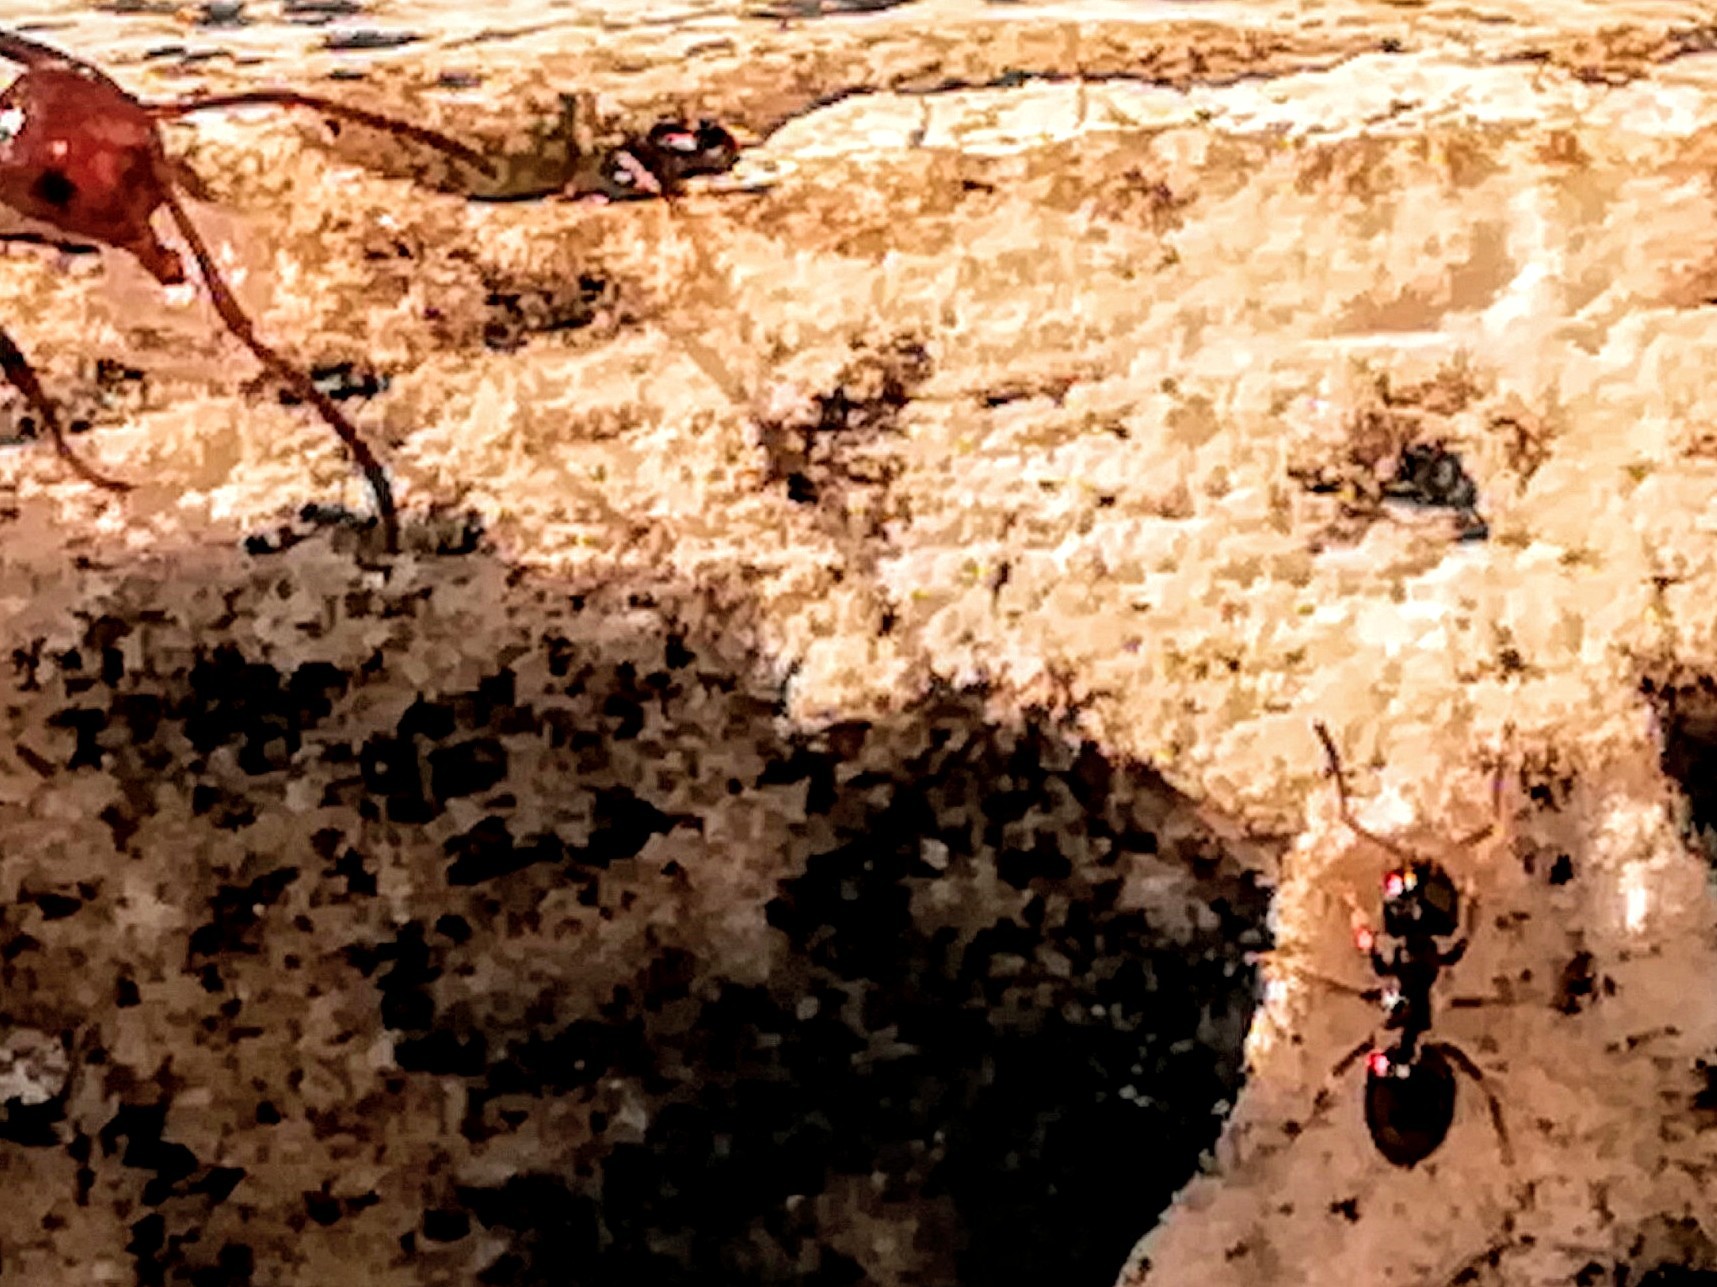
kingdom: Animalia
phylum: Arthropoda
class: Insecta
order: Hymenoptera
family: Formicidae
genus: Plagiolepis
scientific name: Plagiolepis pygmaea
